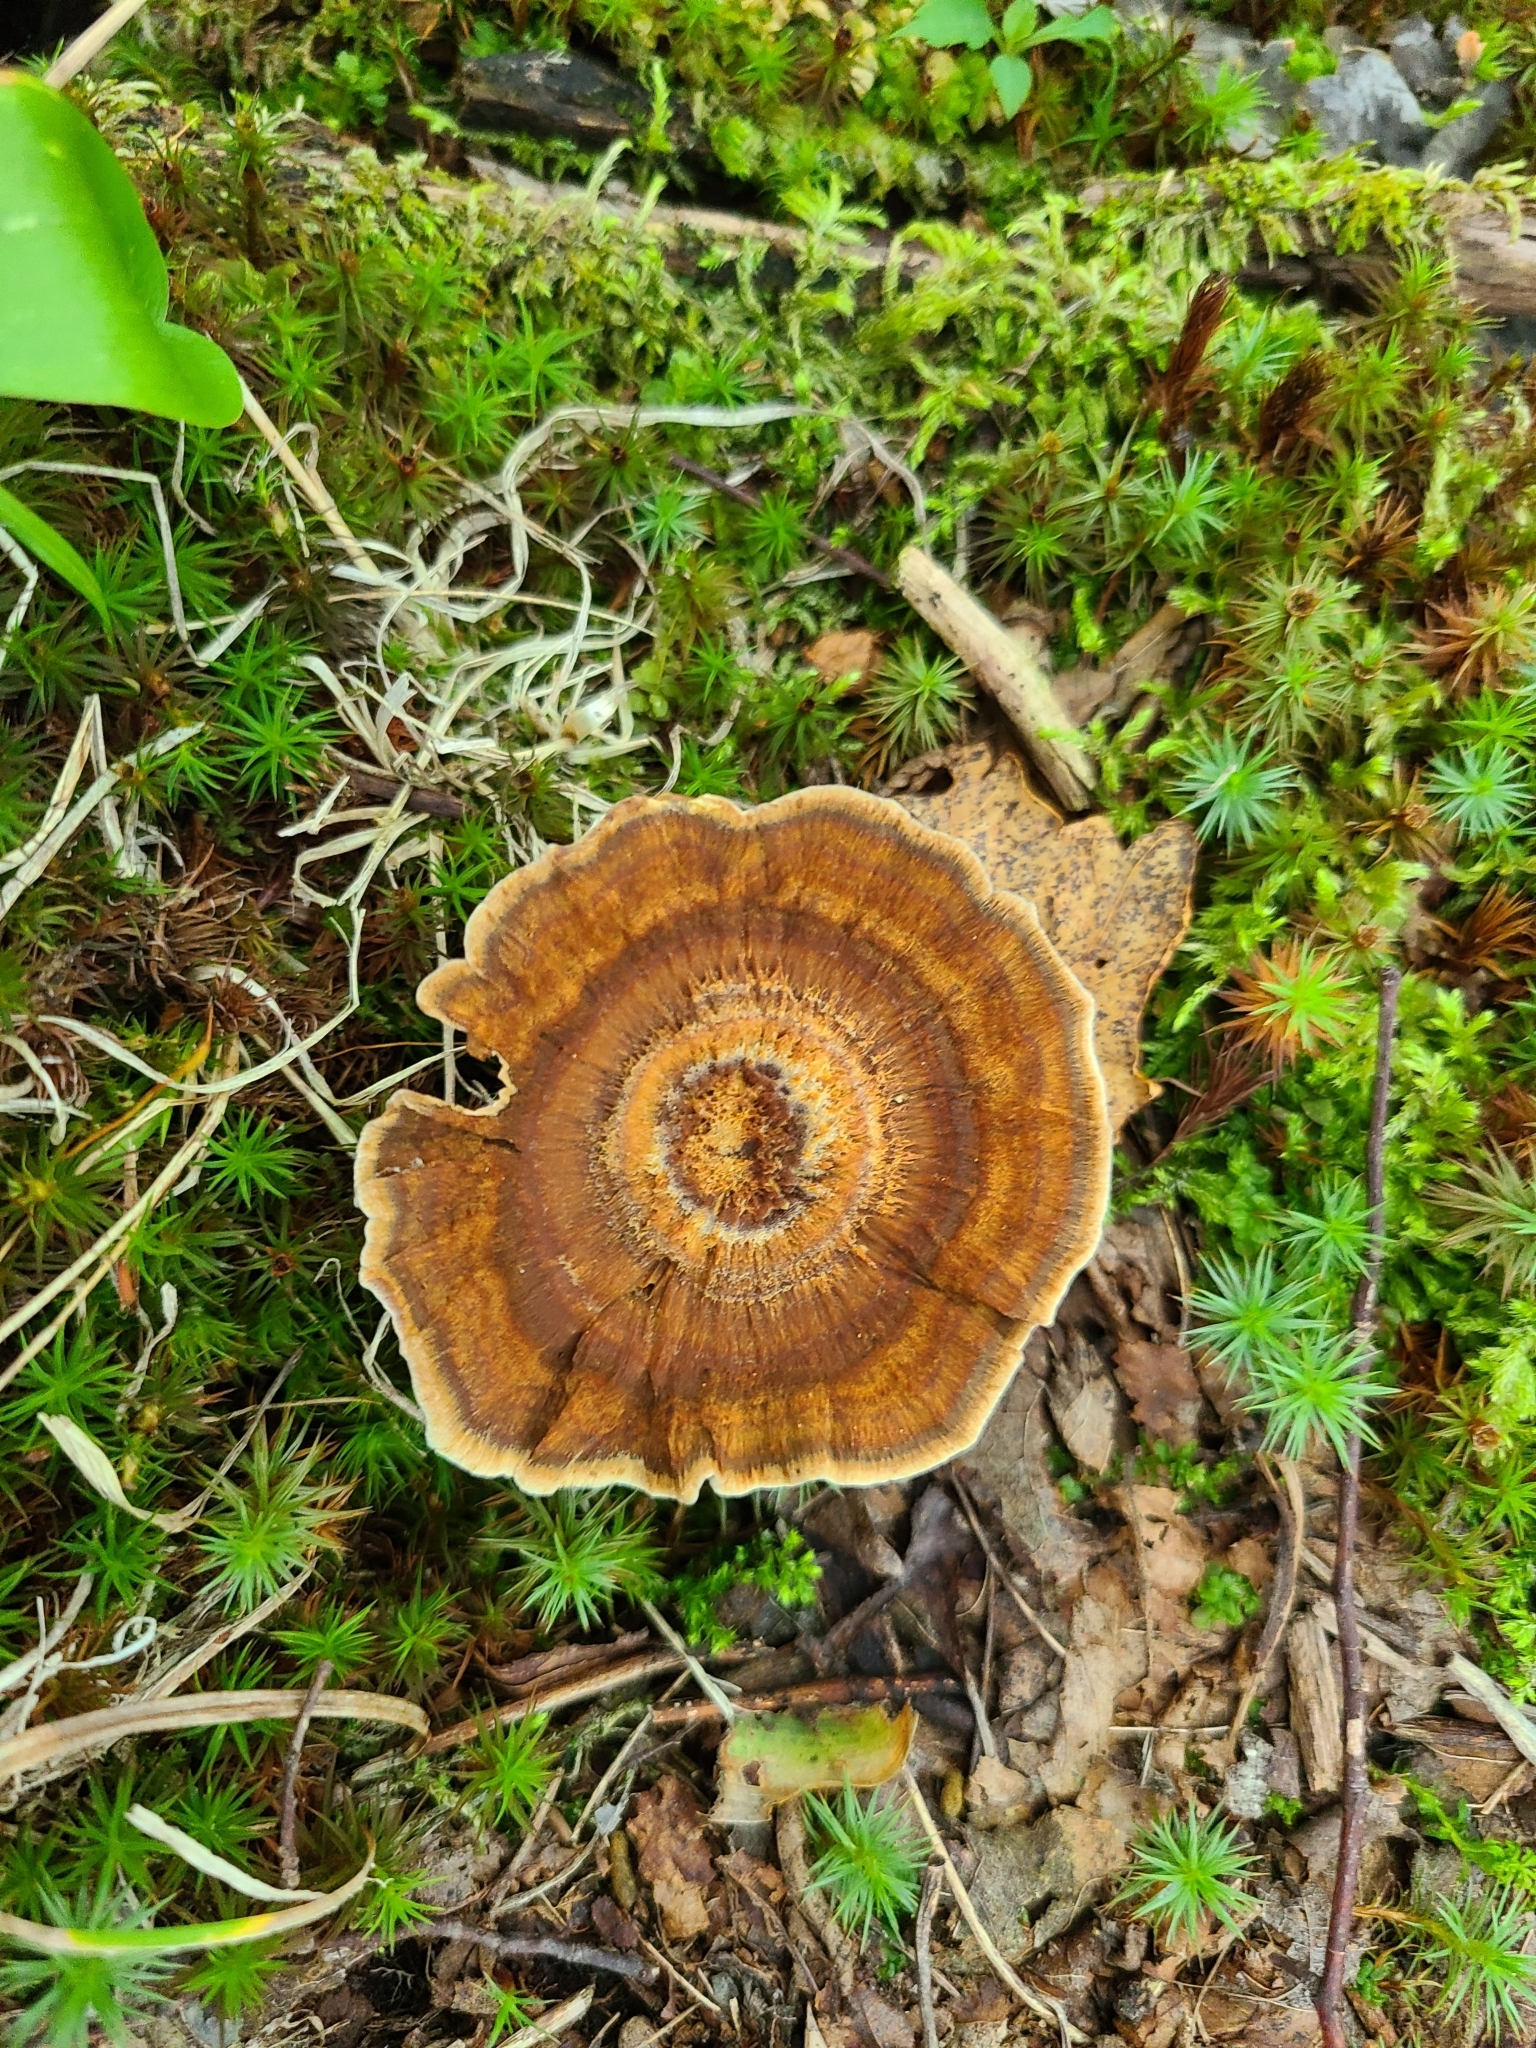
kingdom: Fungi
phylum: Basidiomycota
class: Agaricomycetes
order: Hymenochaetales
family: Hymenochaetaceae
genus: Coltricia
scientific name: Coltricia perennis
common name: Tiger's eye
